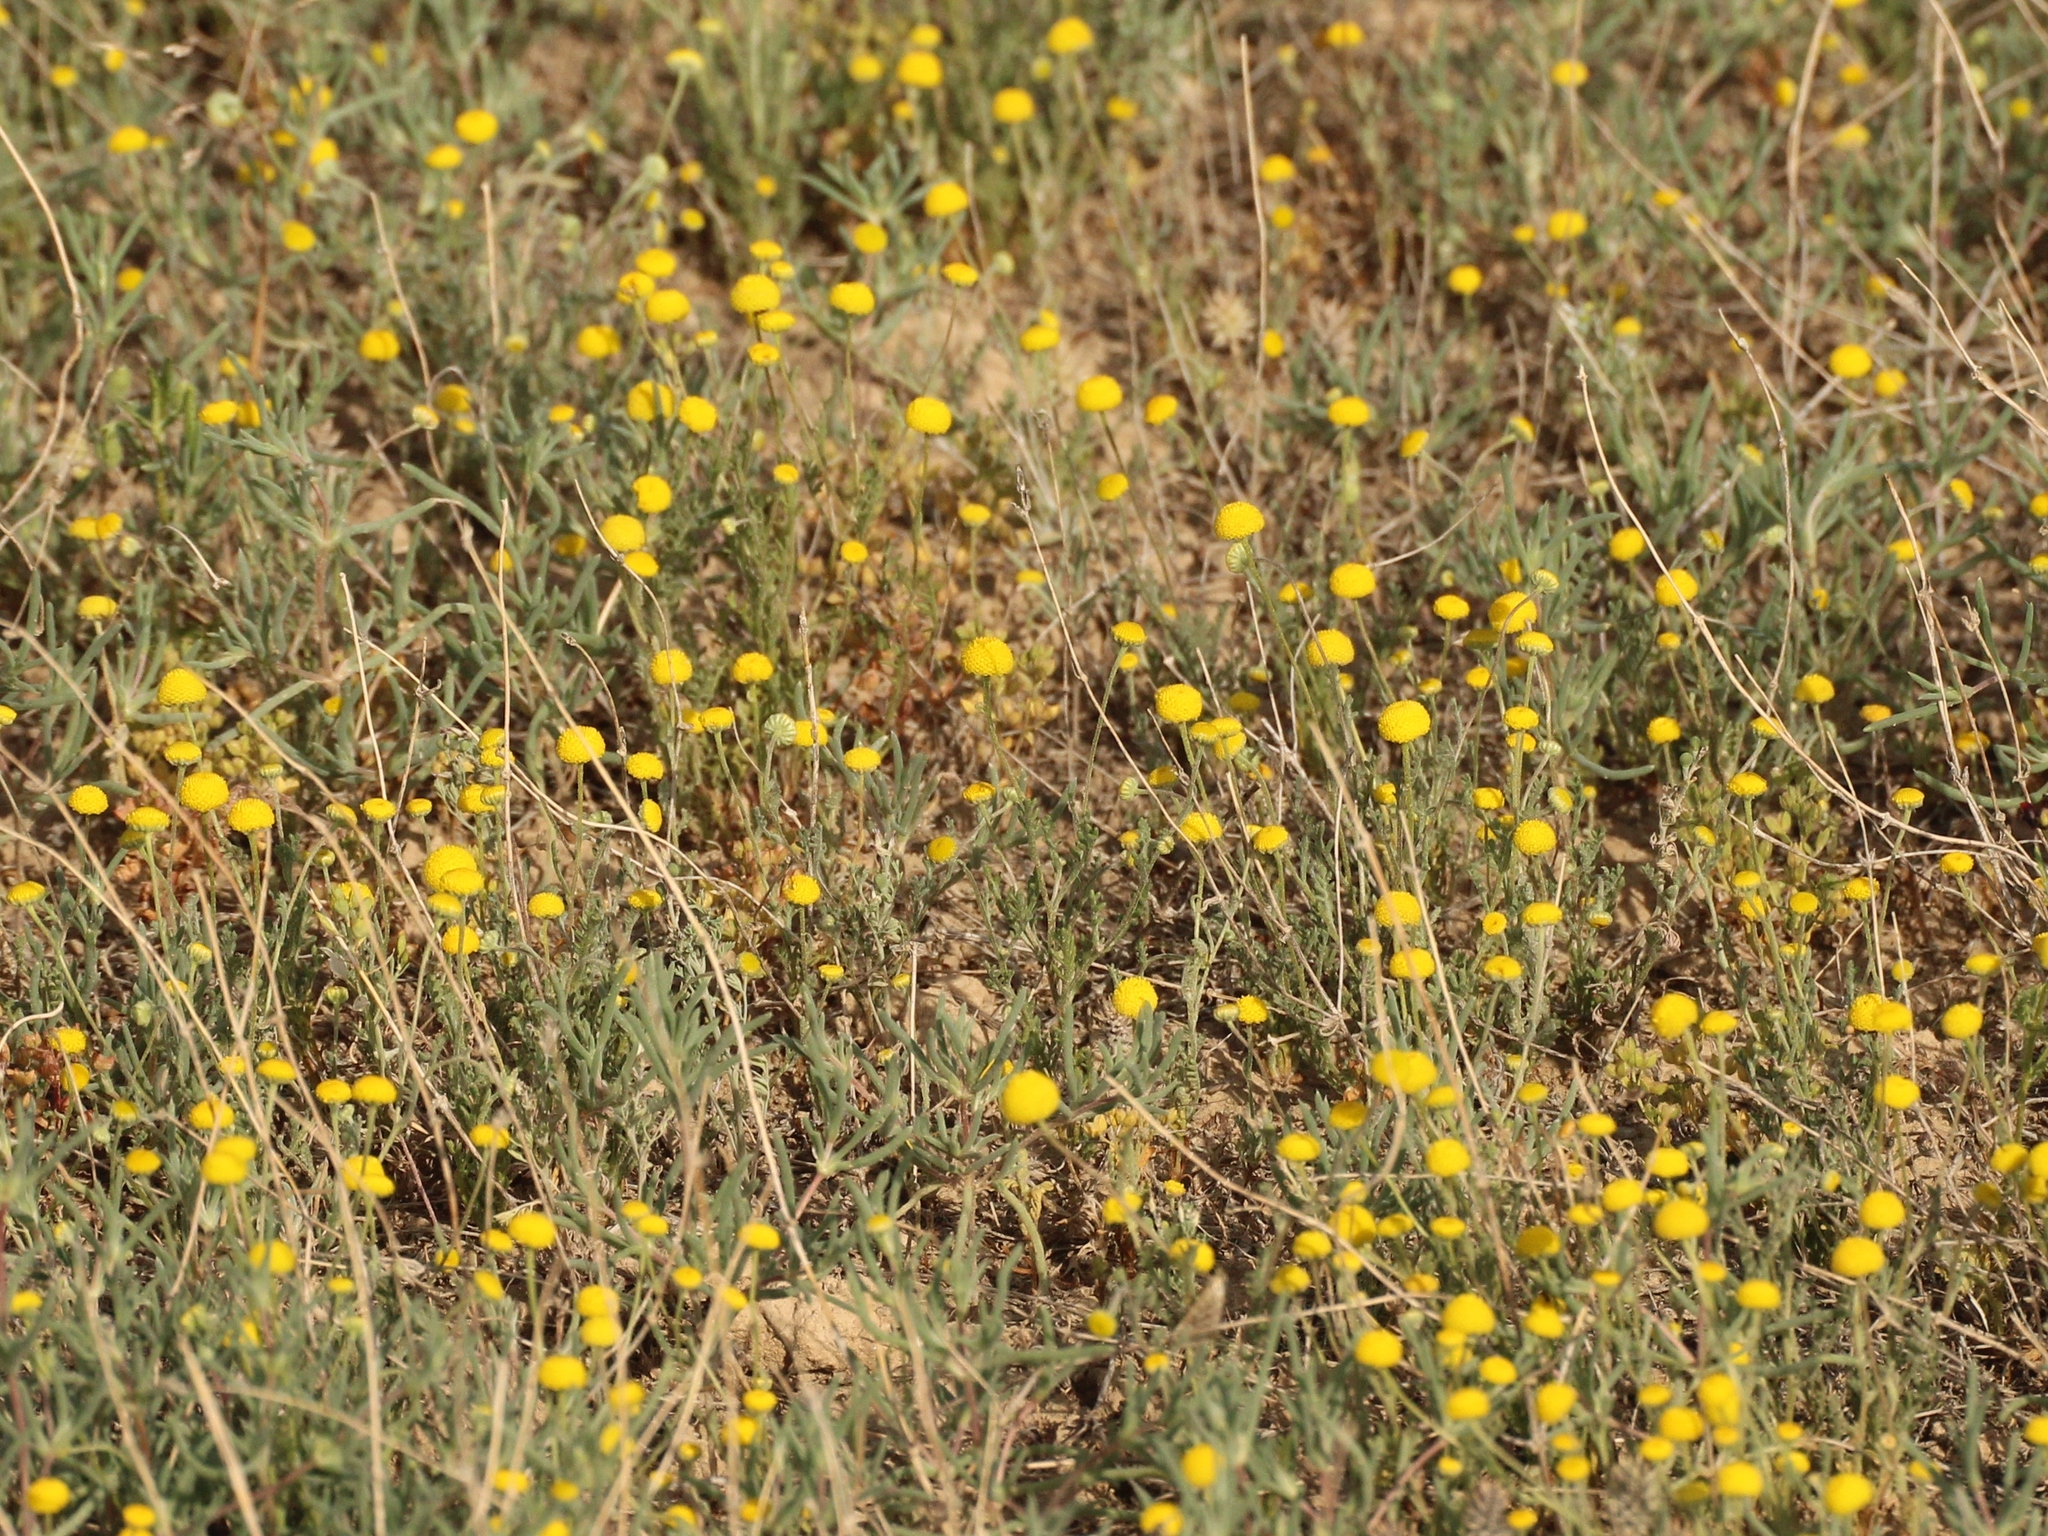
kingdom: Plantae
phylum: Tracheophyta
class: Magnoliopsida
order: Asterales
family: Asteraceae
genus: Cancrinia
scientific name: Cancrinia discoidea
